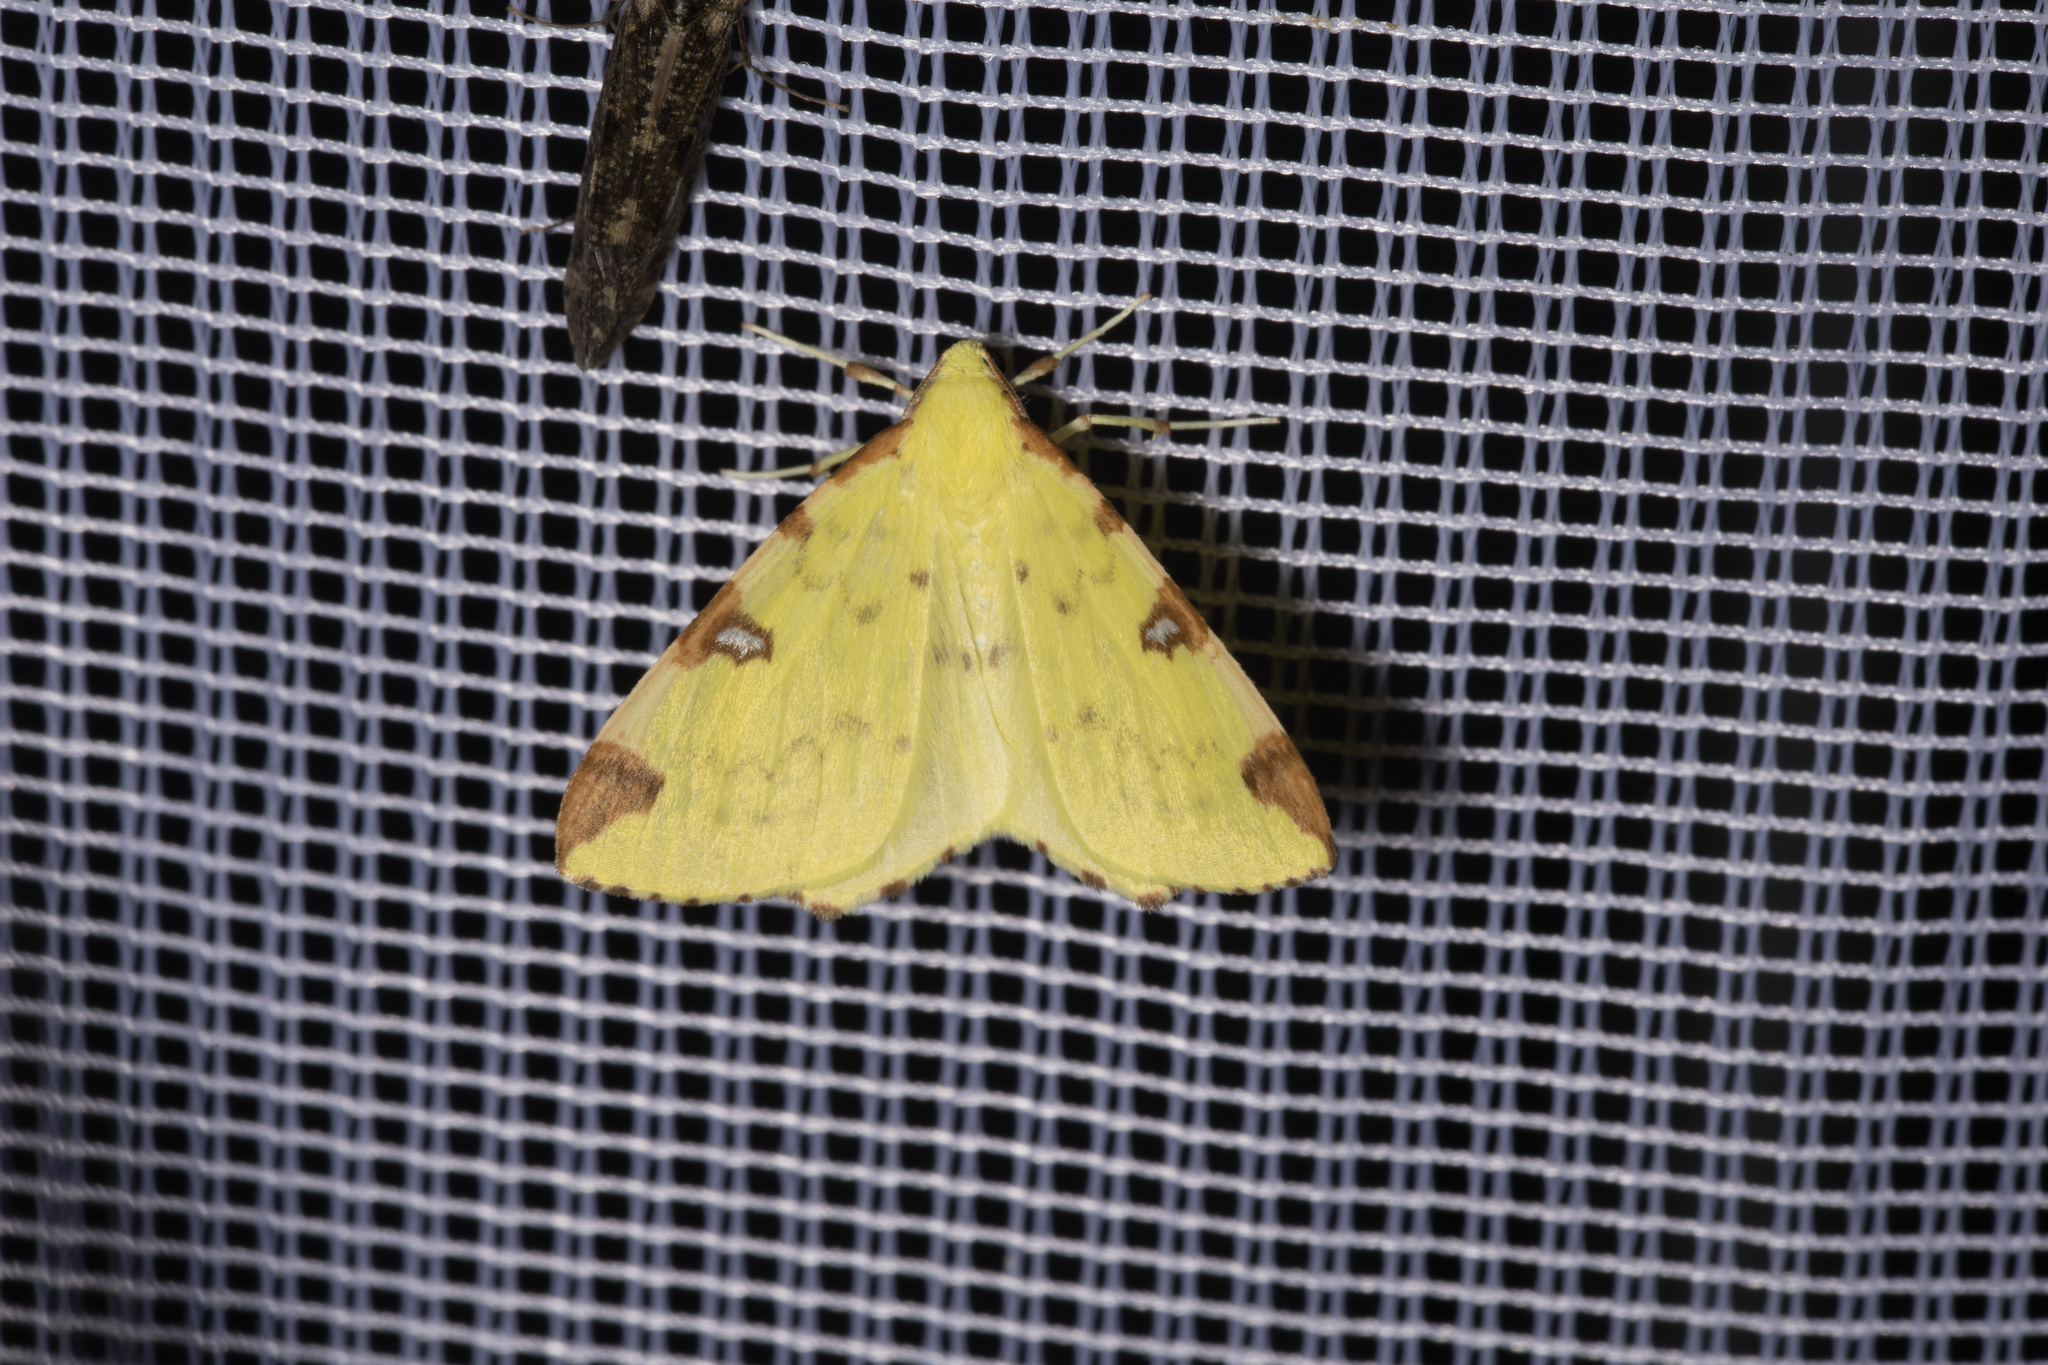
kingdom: Animalia
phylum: Arthropoda
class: Insecta
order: Lepidoptera
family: Geometridae
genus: Opisthograptis
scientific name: Opisthograptis luteolata
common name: Brimstone moth
